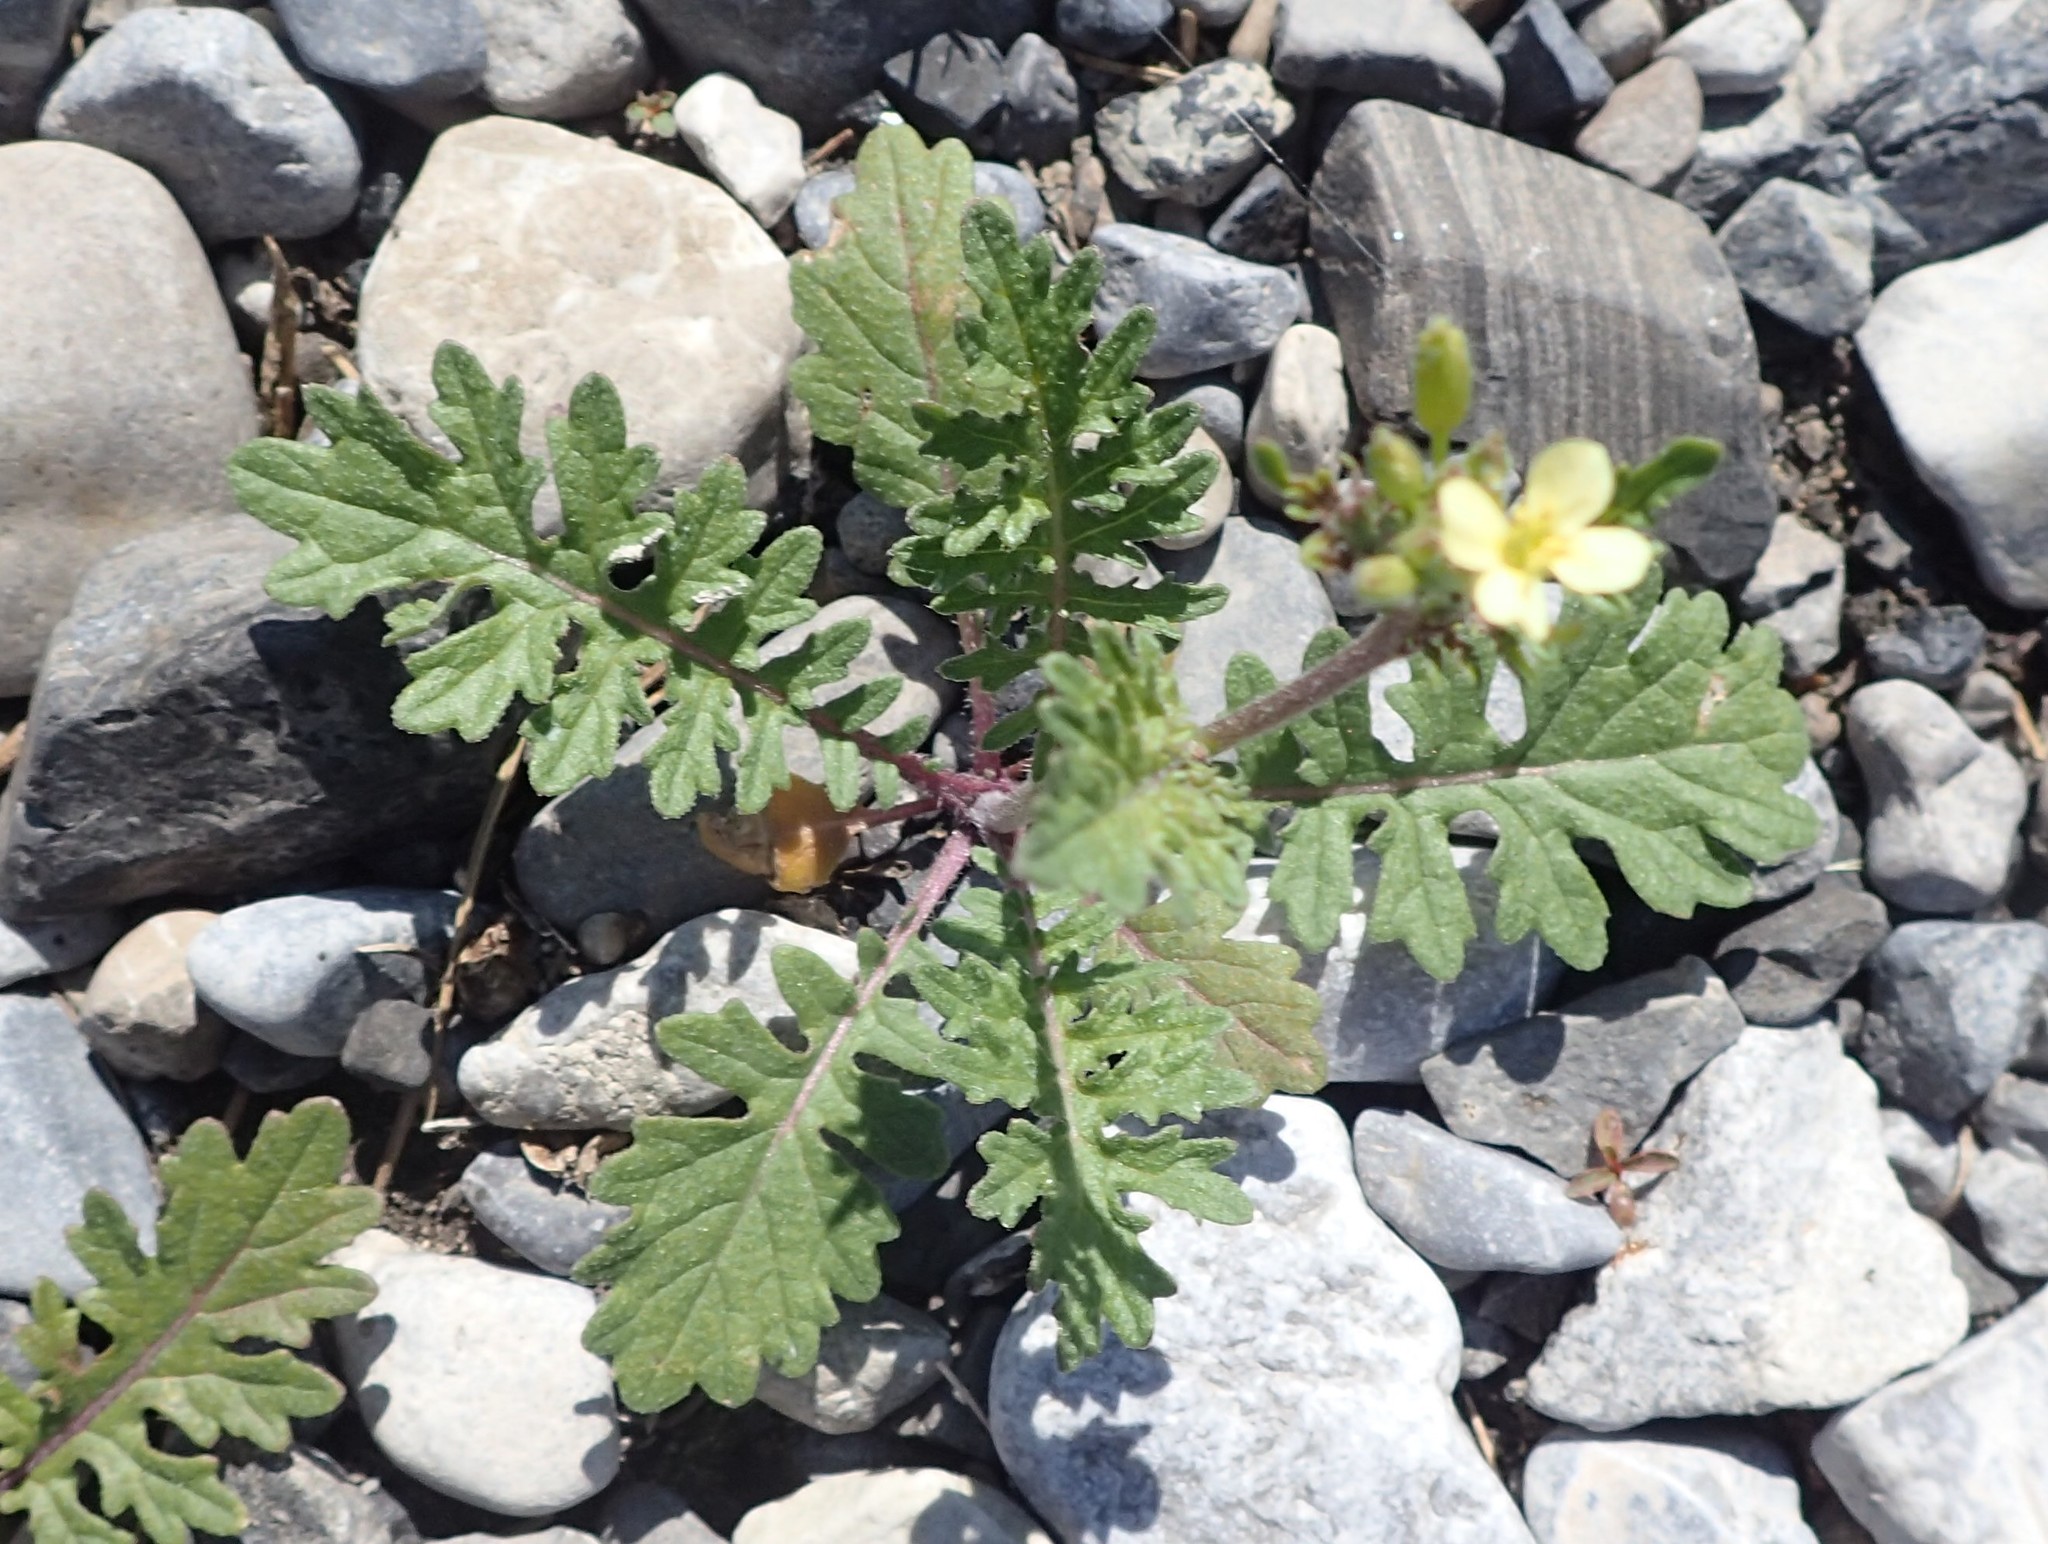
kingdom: Plantae
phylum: Tracheophyta
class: Magnoliopsida
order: Brassicales
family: Brassicaceae
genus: Erucastrum
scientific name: Erucastrum gallicum
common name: Hairy rocket
